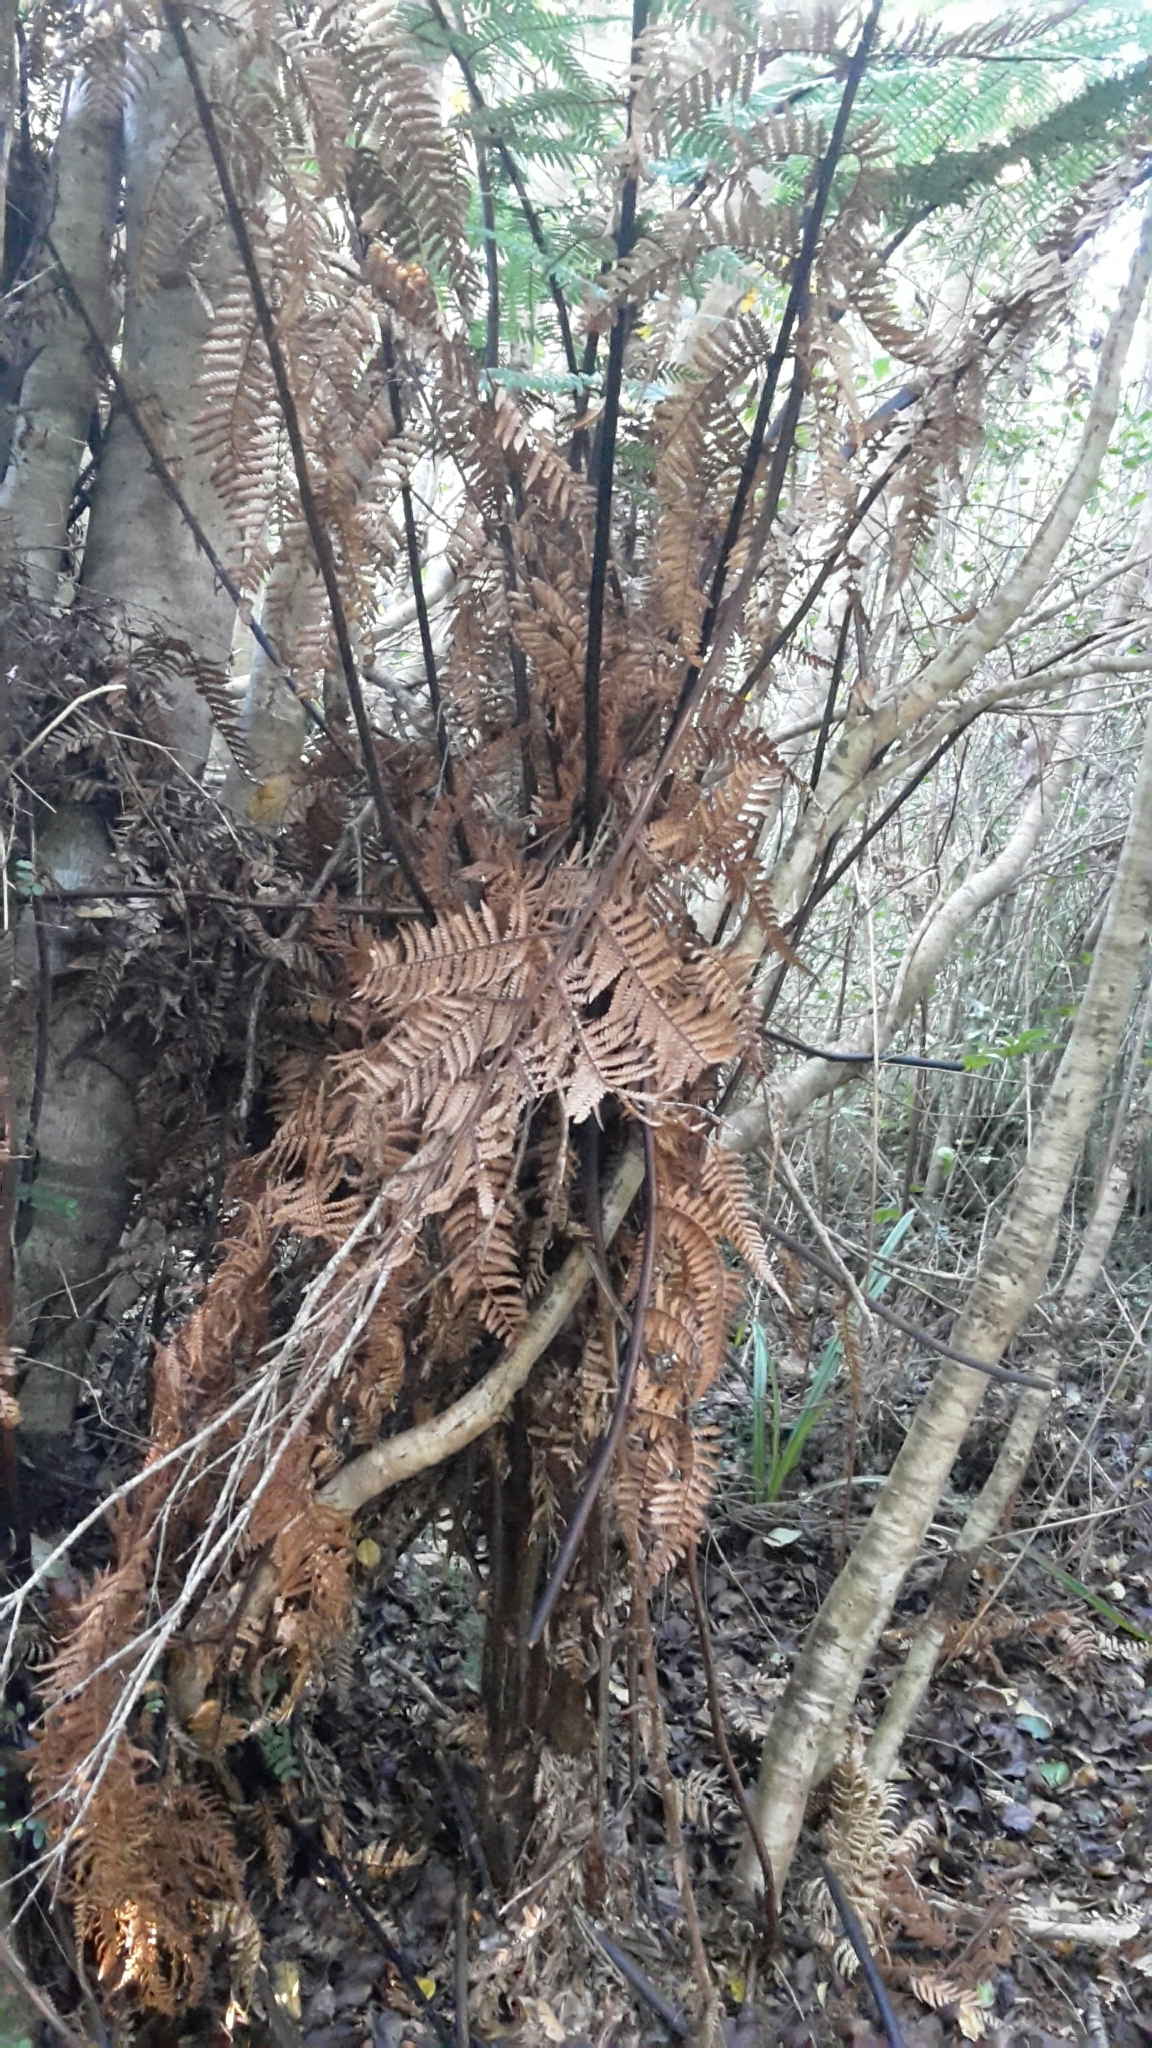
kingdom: Plantae
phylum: Tracheophyta
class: Polypodiopsida
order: Cyatheales
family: Dicksoniaceae
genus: Dicksonia
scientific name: Dicksonia squarrosa
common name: Hard treefern
